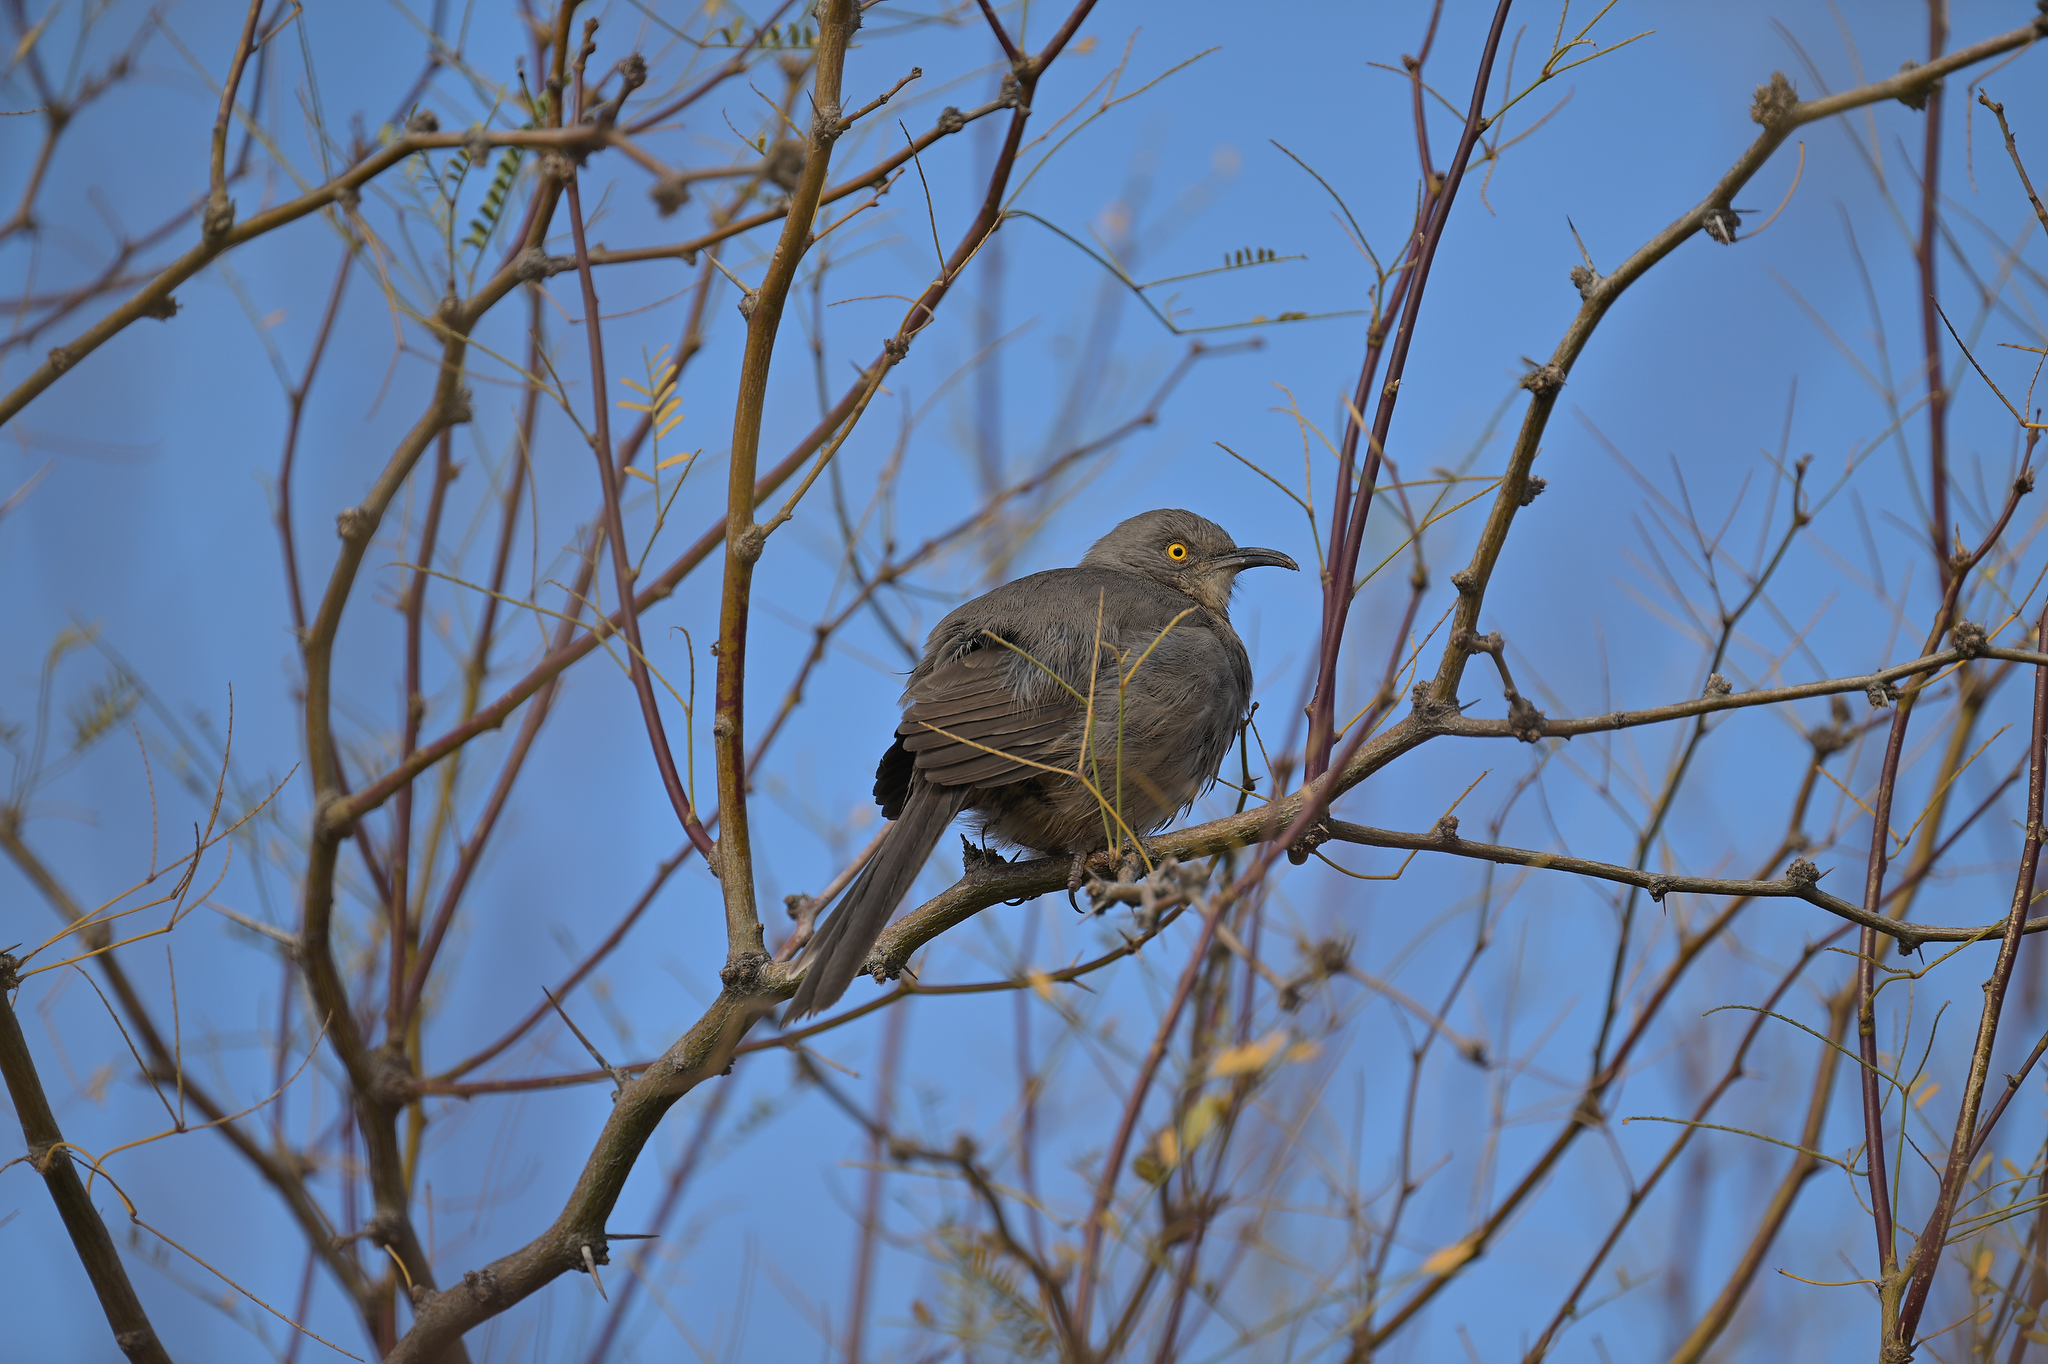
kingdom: Animalia
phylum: Chordata
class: Aves
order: Passeriformes
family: Mimidae
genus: Toxostoma
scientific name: Toxostoma curvirostre
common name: Curve-billed thrasher
